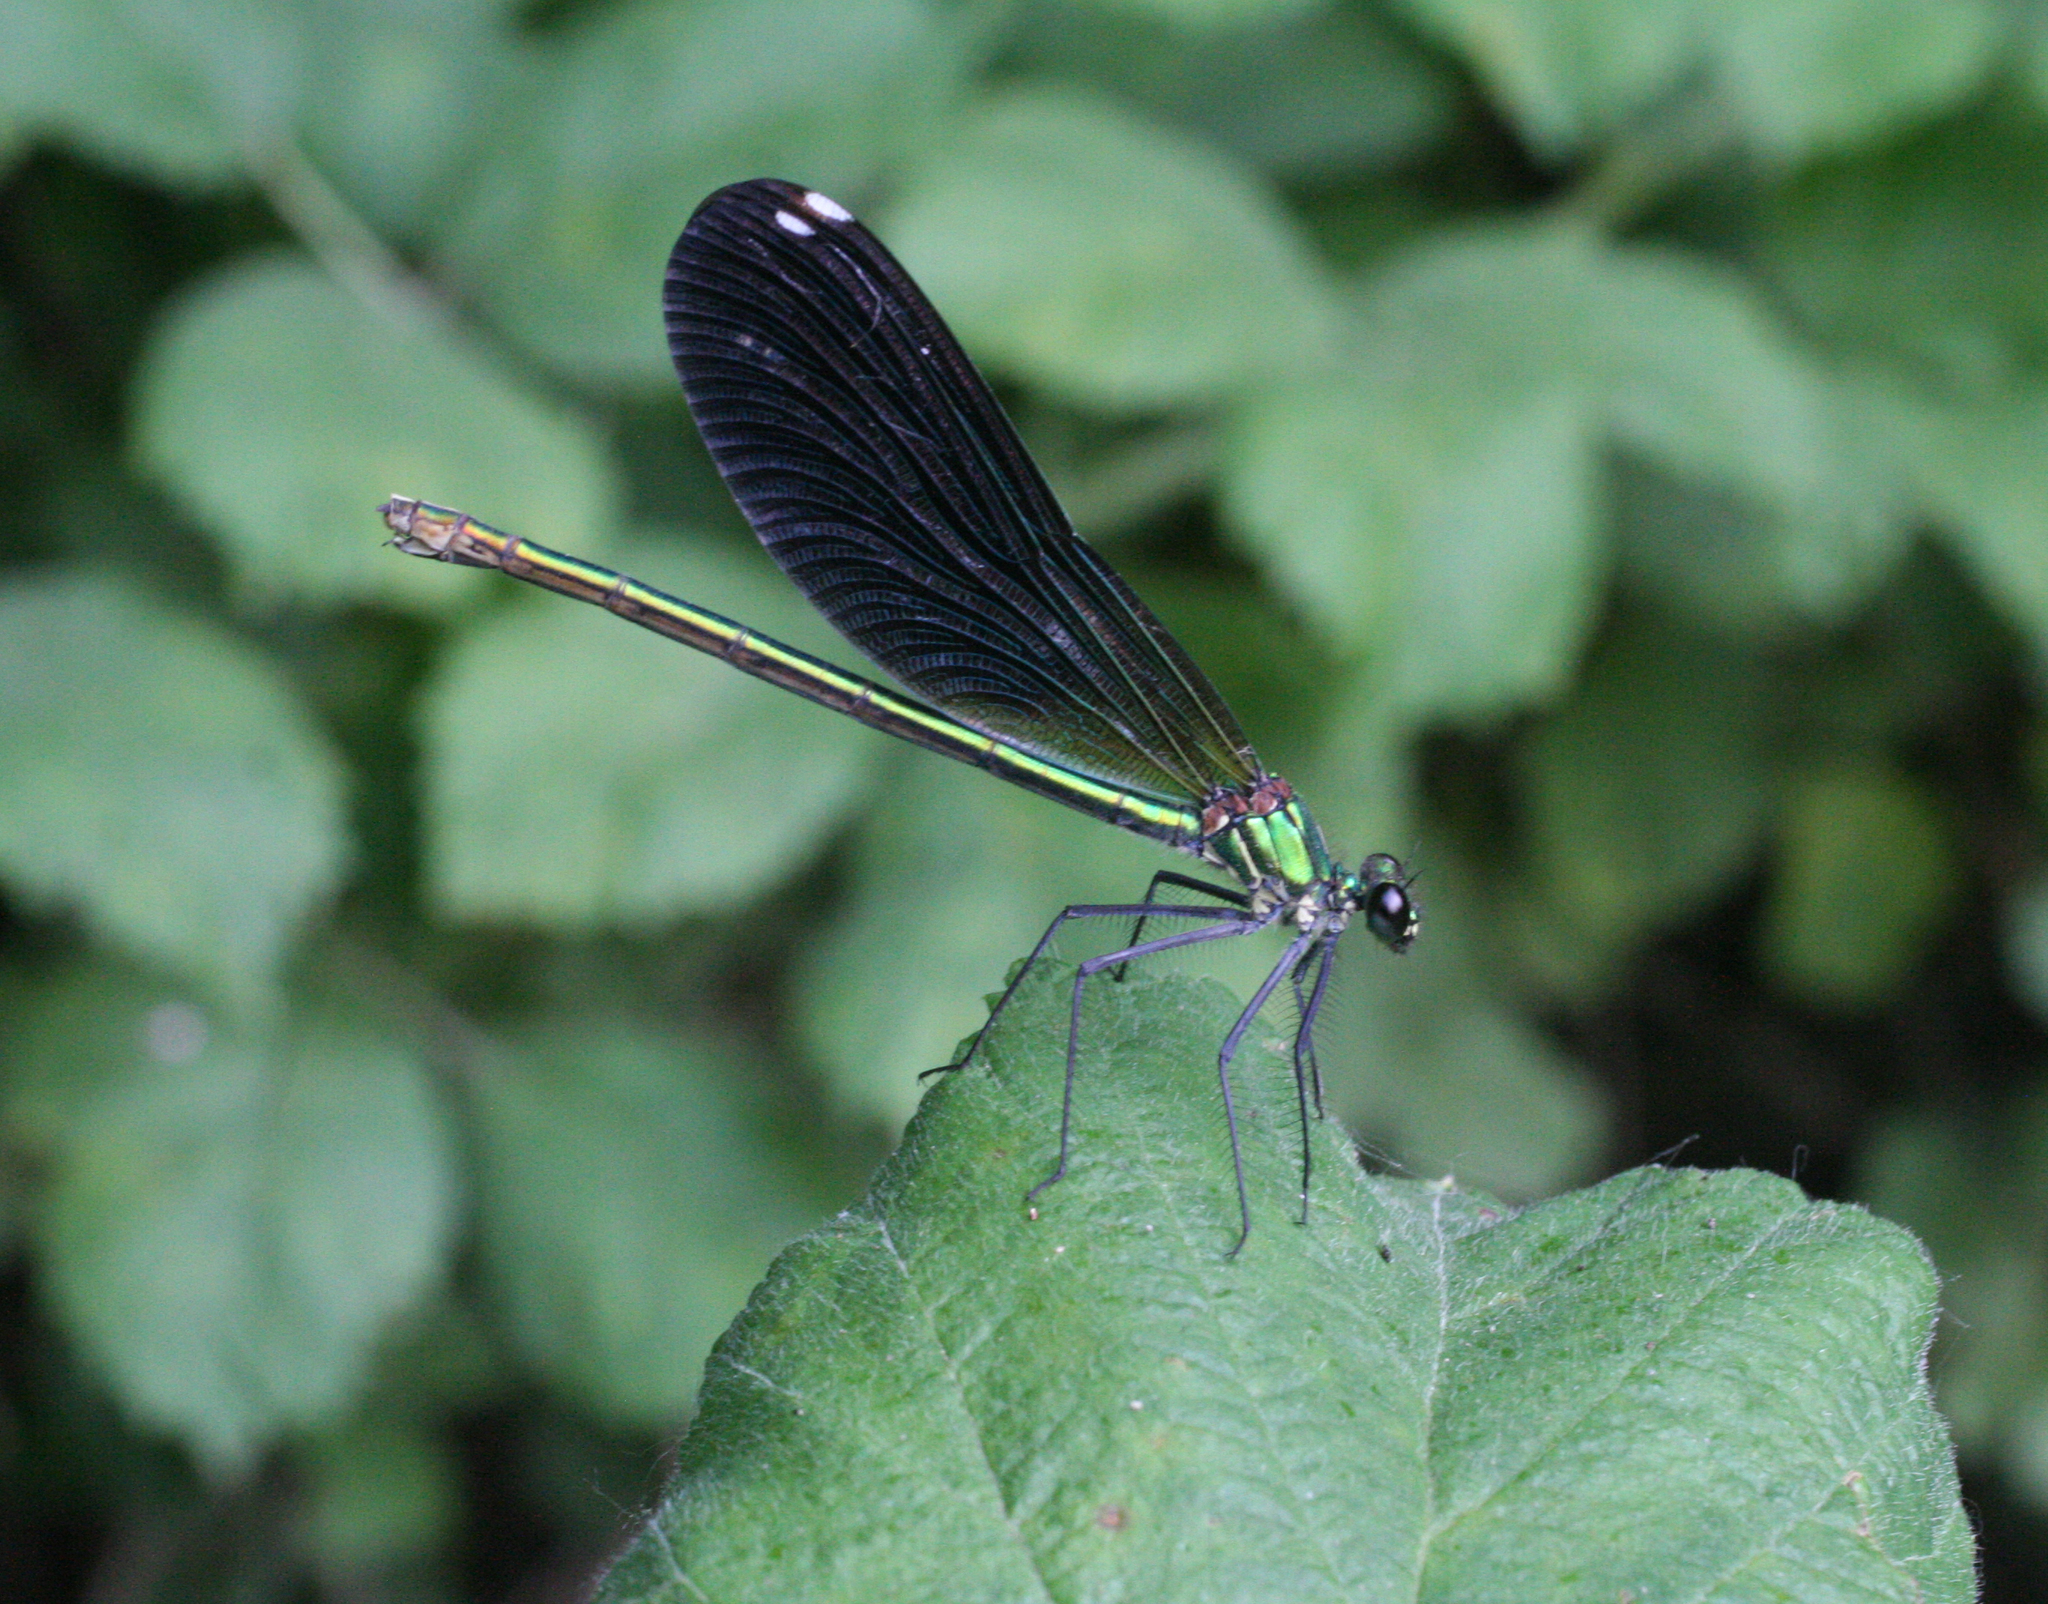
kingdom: Animalia
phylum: Arthropoda
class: Insecta
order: Odonata
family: Calopterygidae
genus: Calopteryx
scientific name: Calopteryx splendens
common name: Banded demoiselle
